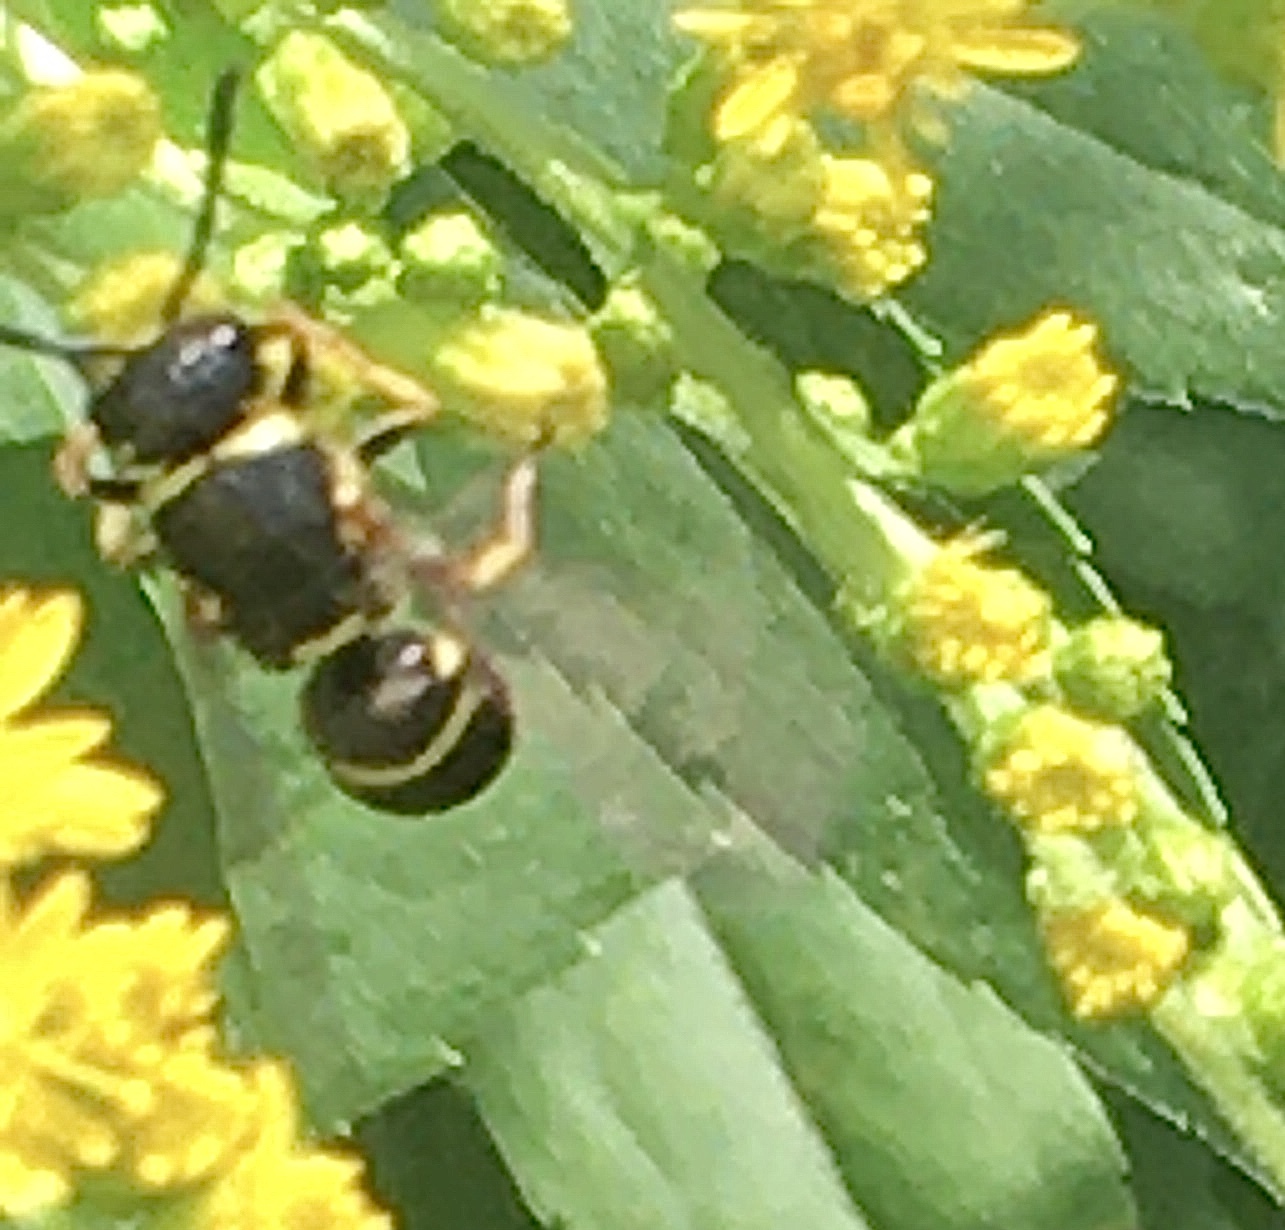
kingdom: Animalia
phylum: Arthropoda
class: Insecta
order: Hymenoptera
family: Eumenidae
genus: Euodynerus
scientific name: Euodynerus
